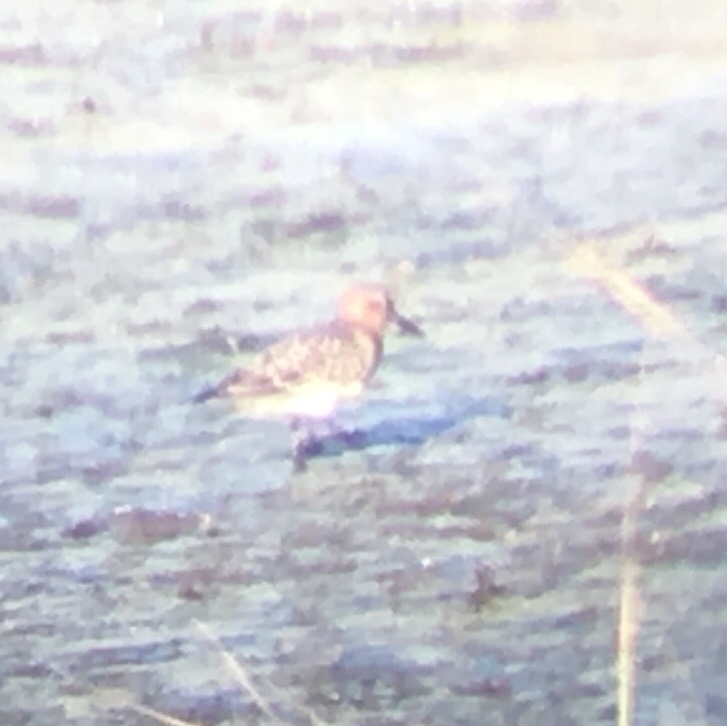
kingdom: Animalia
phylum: Chordata
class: Aves
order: Charadriiformes
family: Scolopacidae
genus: Calidris
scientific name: Calidris bairdii
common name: Baird's sandpiper
